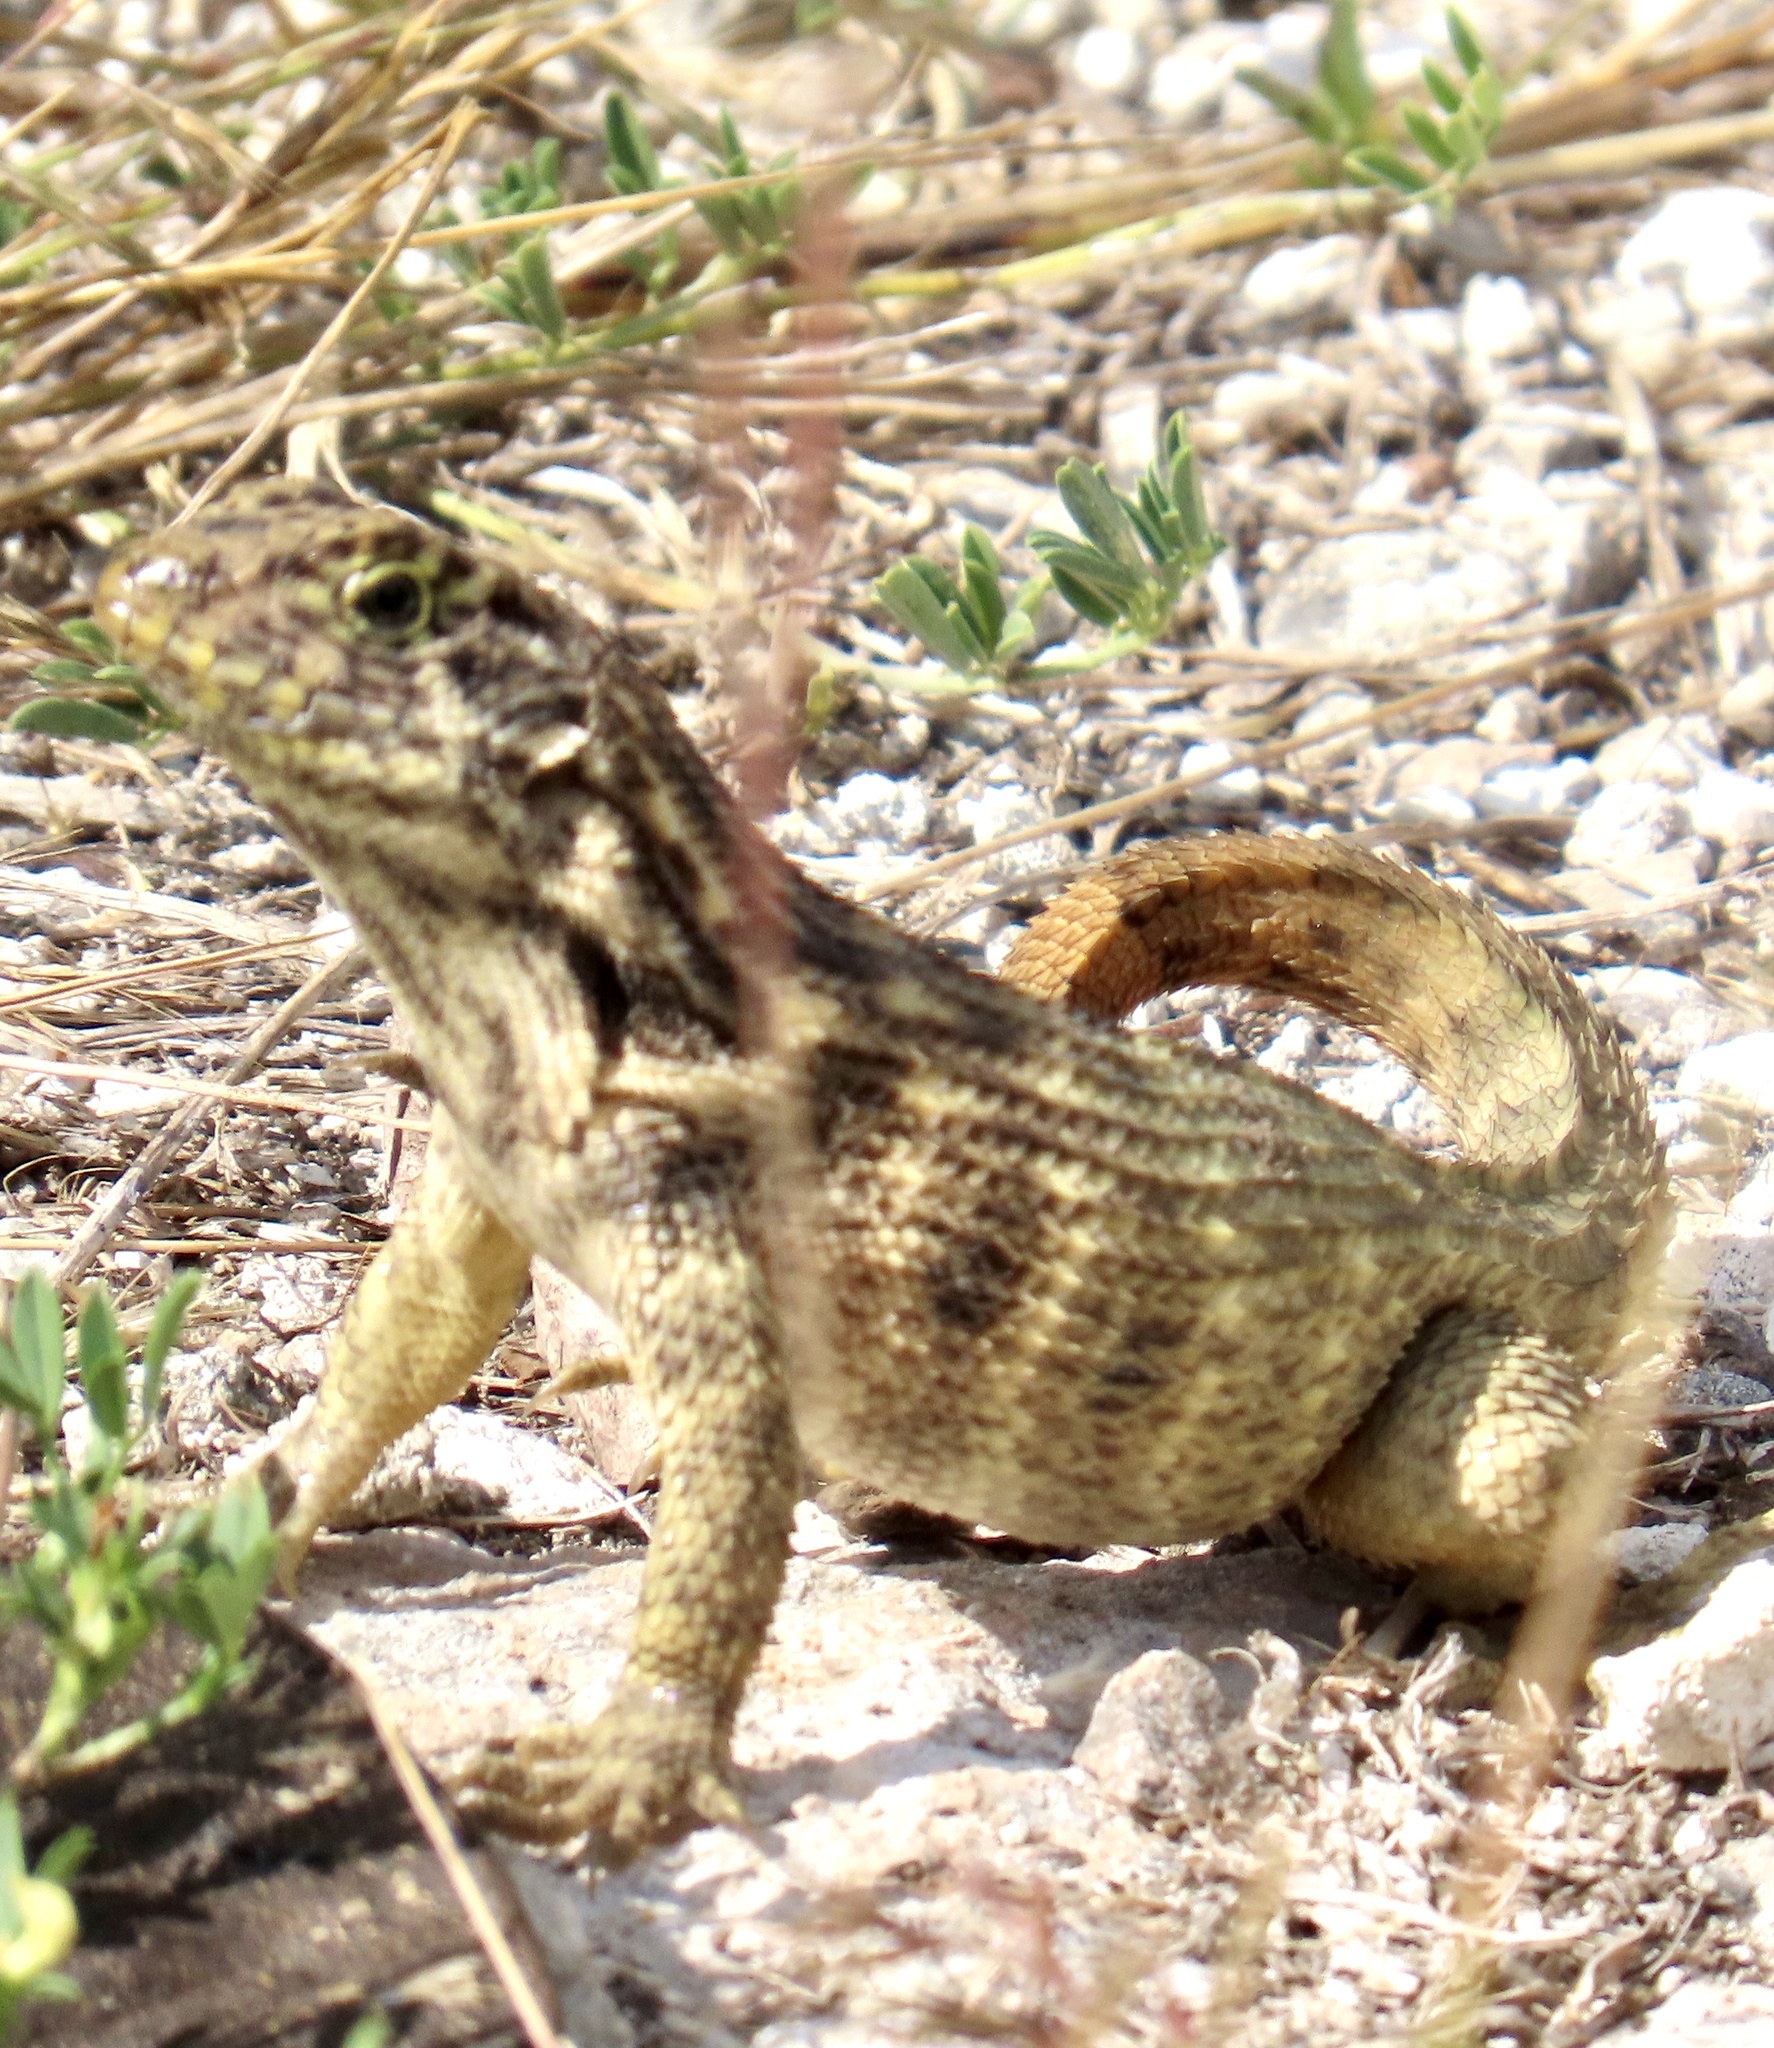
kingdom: Animalia
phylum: Chordata
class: Squamata
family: Leiocephalidae
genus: Leiocephalus
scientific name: Leiocephalus carinatus
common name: Northern curly-tailed lizard
